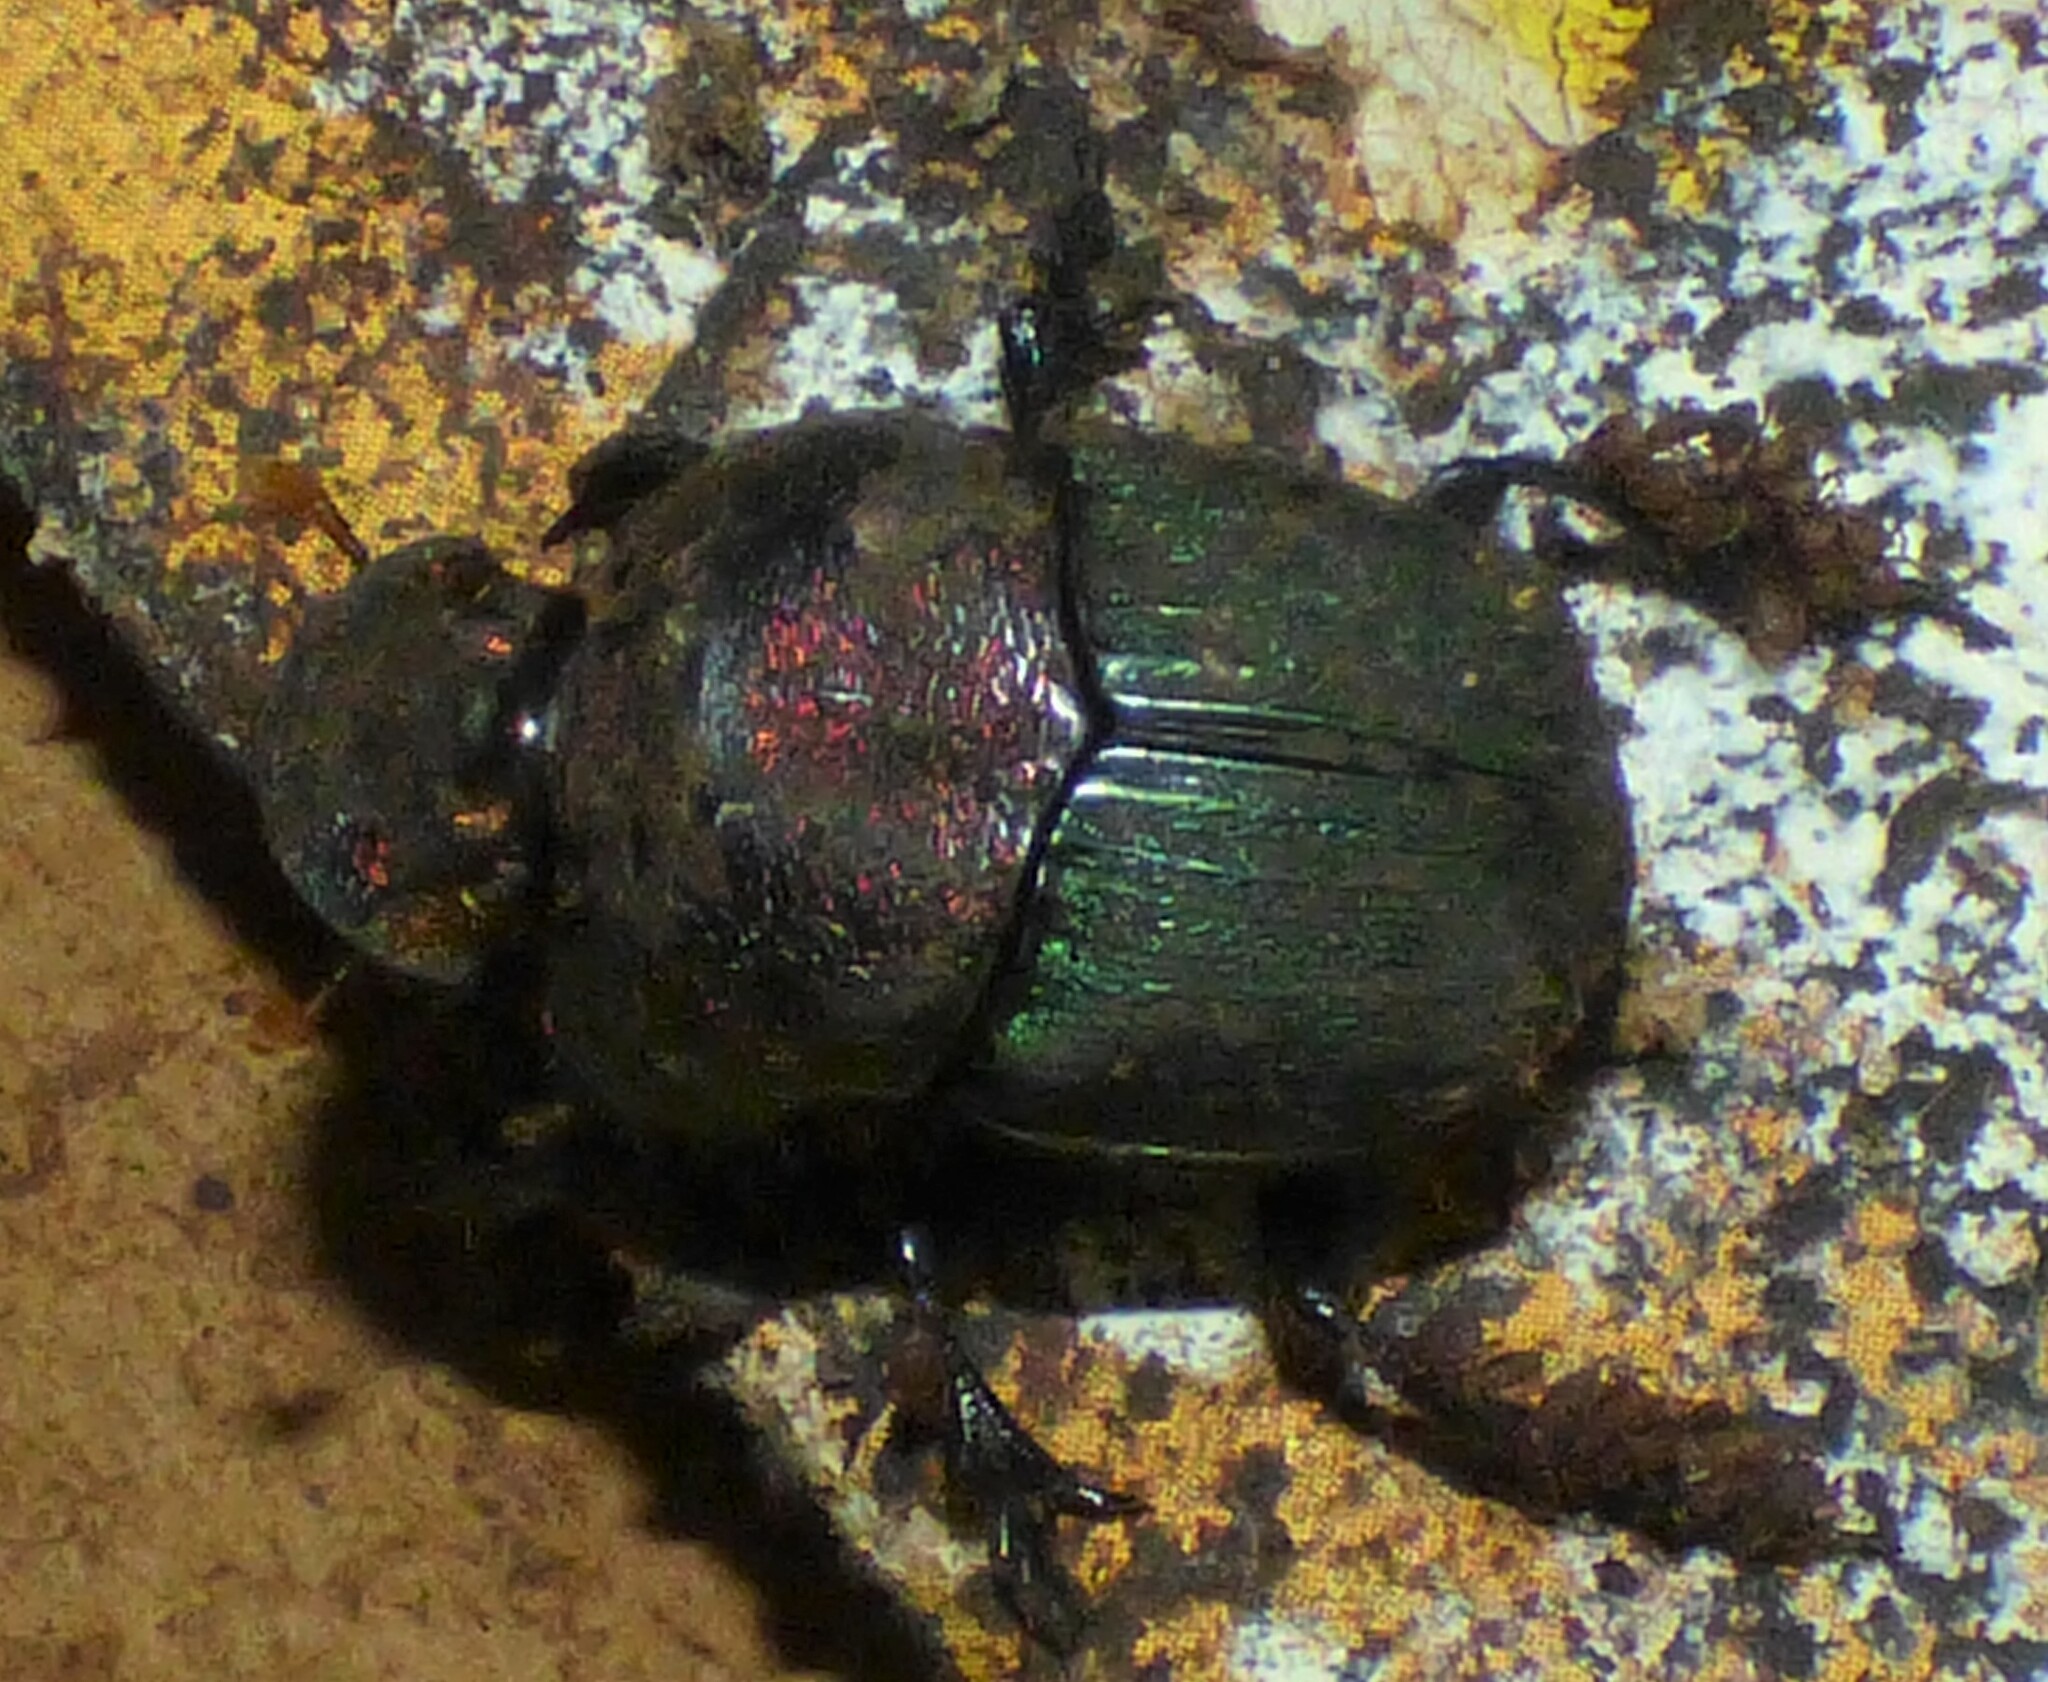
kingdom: Animalia
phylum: Arthropoda
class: Insecta
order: Coleoptera
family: Scarabaeidae
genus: Phanaeus
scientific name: Phanaeus vindex
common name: Rainbow scarab
